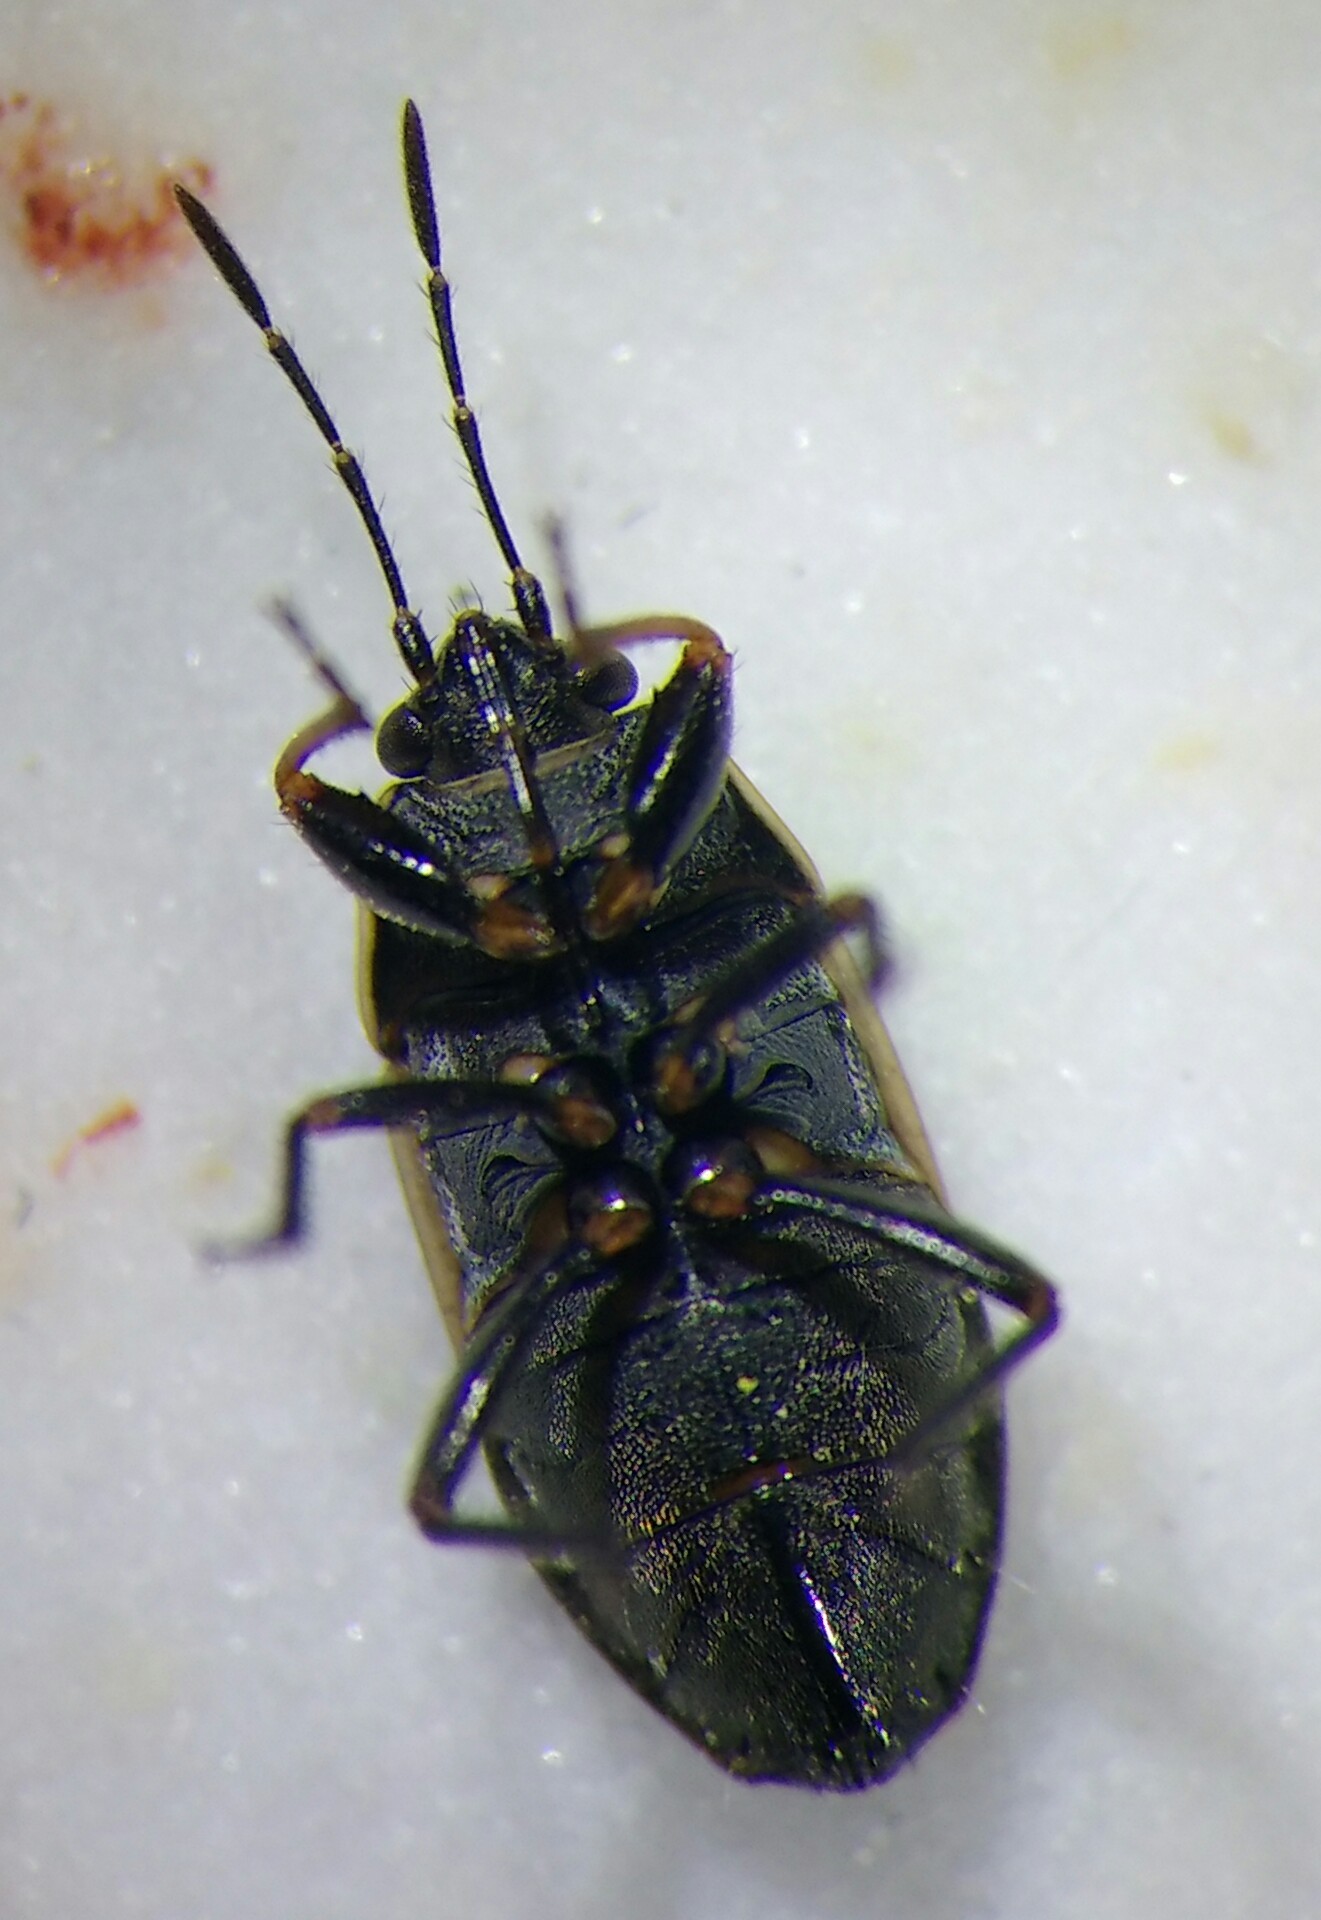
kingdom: Animalia
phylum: Arthropoda
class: Insecta
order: Hemiptera
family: Rhyparochromidae
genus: Trapezonotus
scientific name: Trapezonotus arenarius
